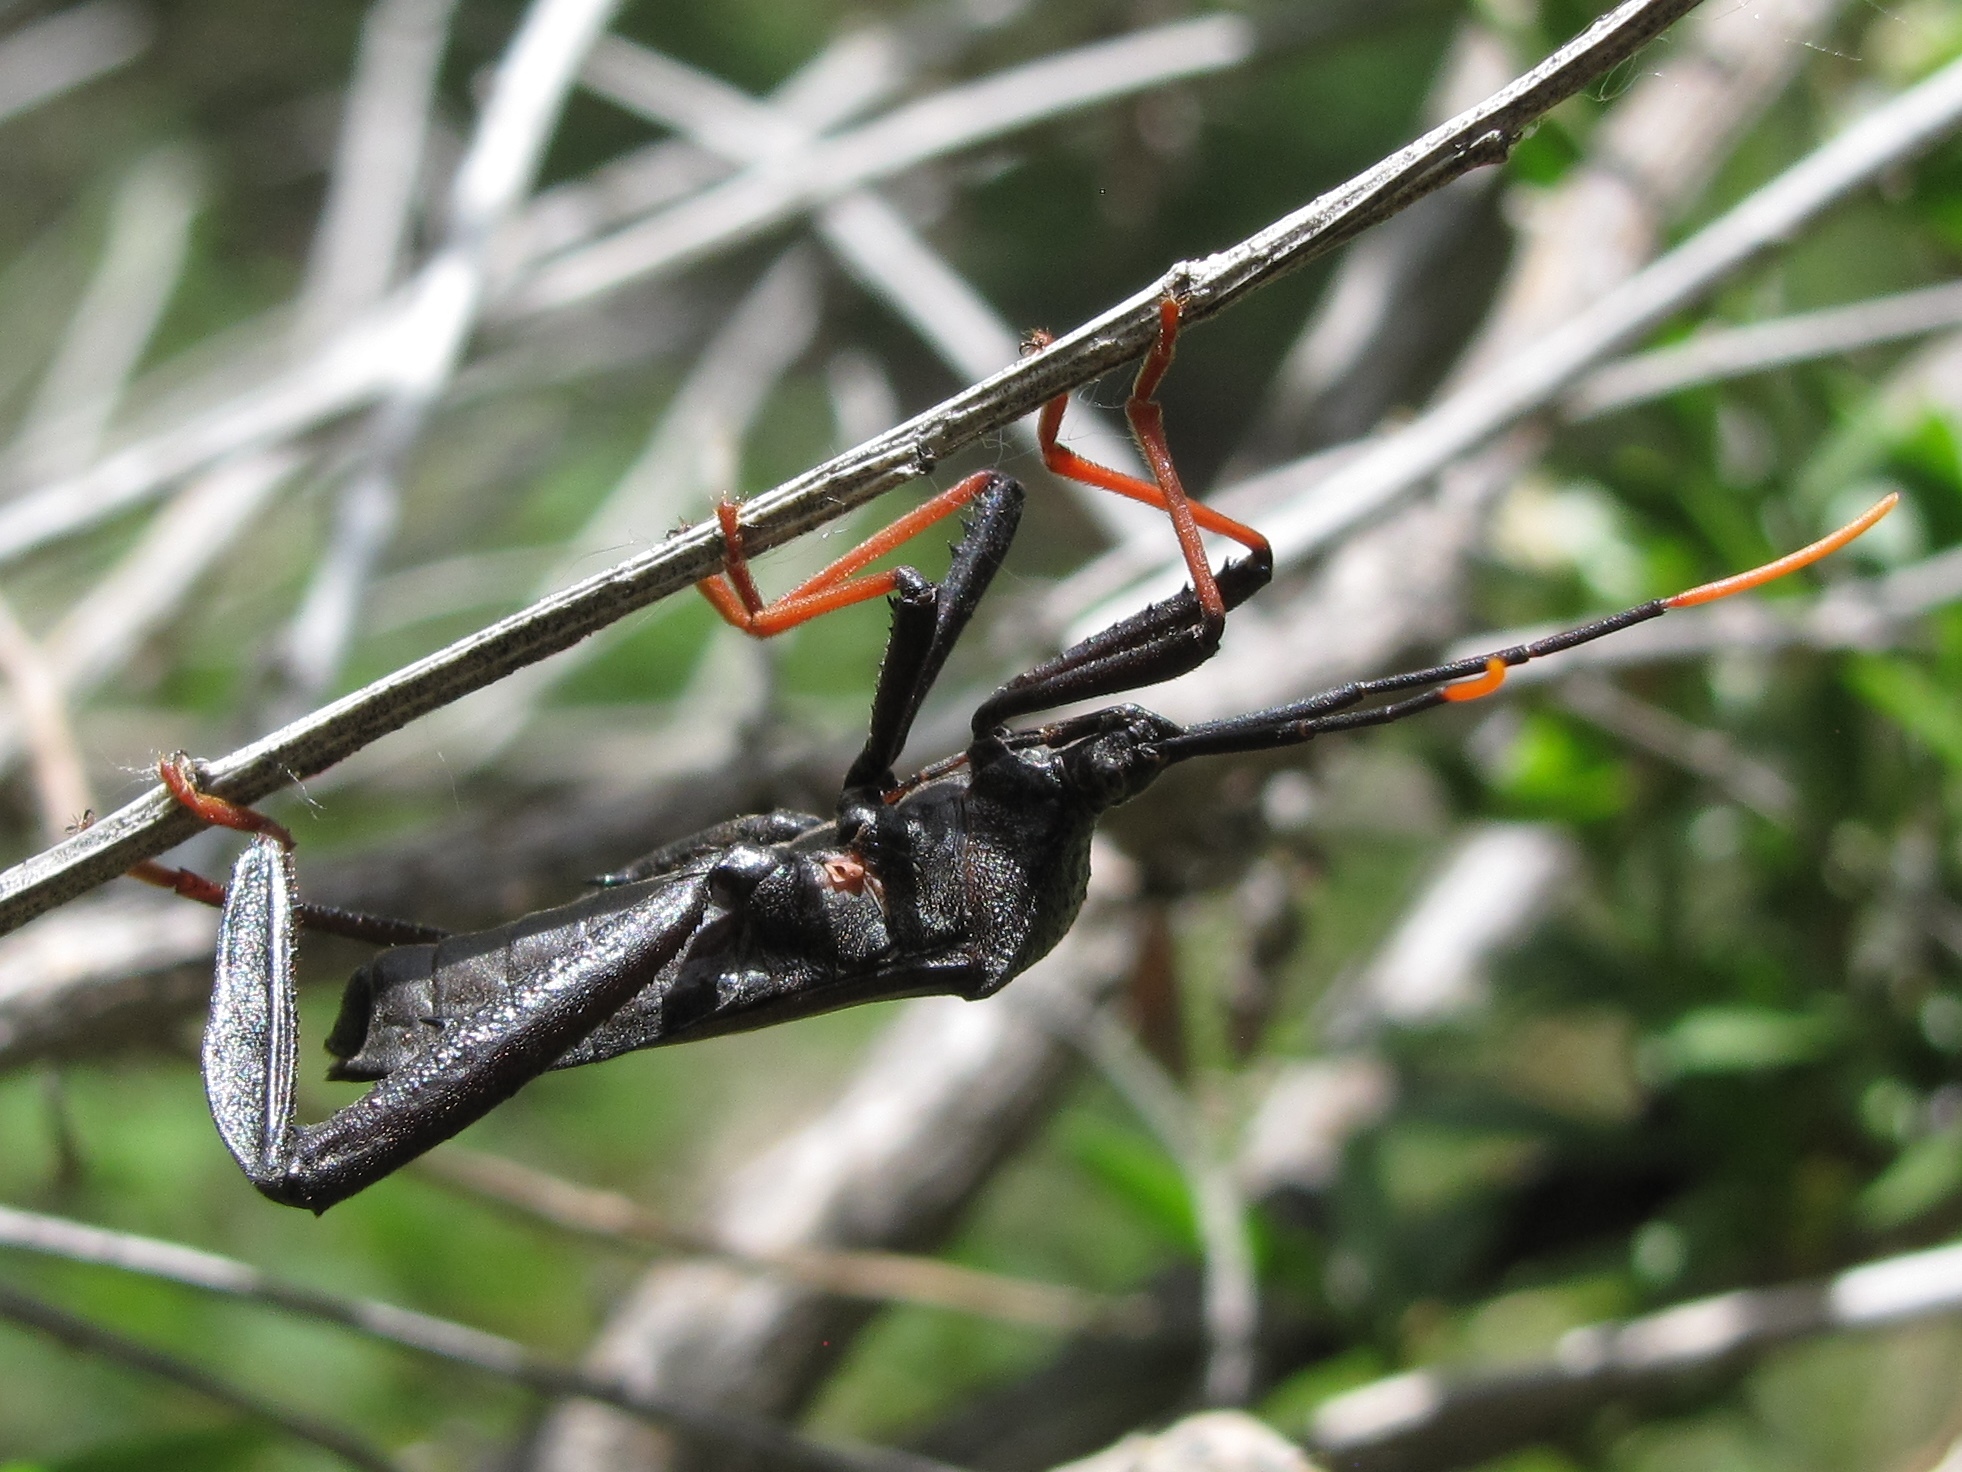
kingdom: Animalia
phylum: Arthropoda
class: Insecta
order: Hemiptera
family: Coreidae
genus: Acanthocephala
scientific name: Acanthocephala thomasi
